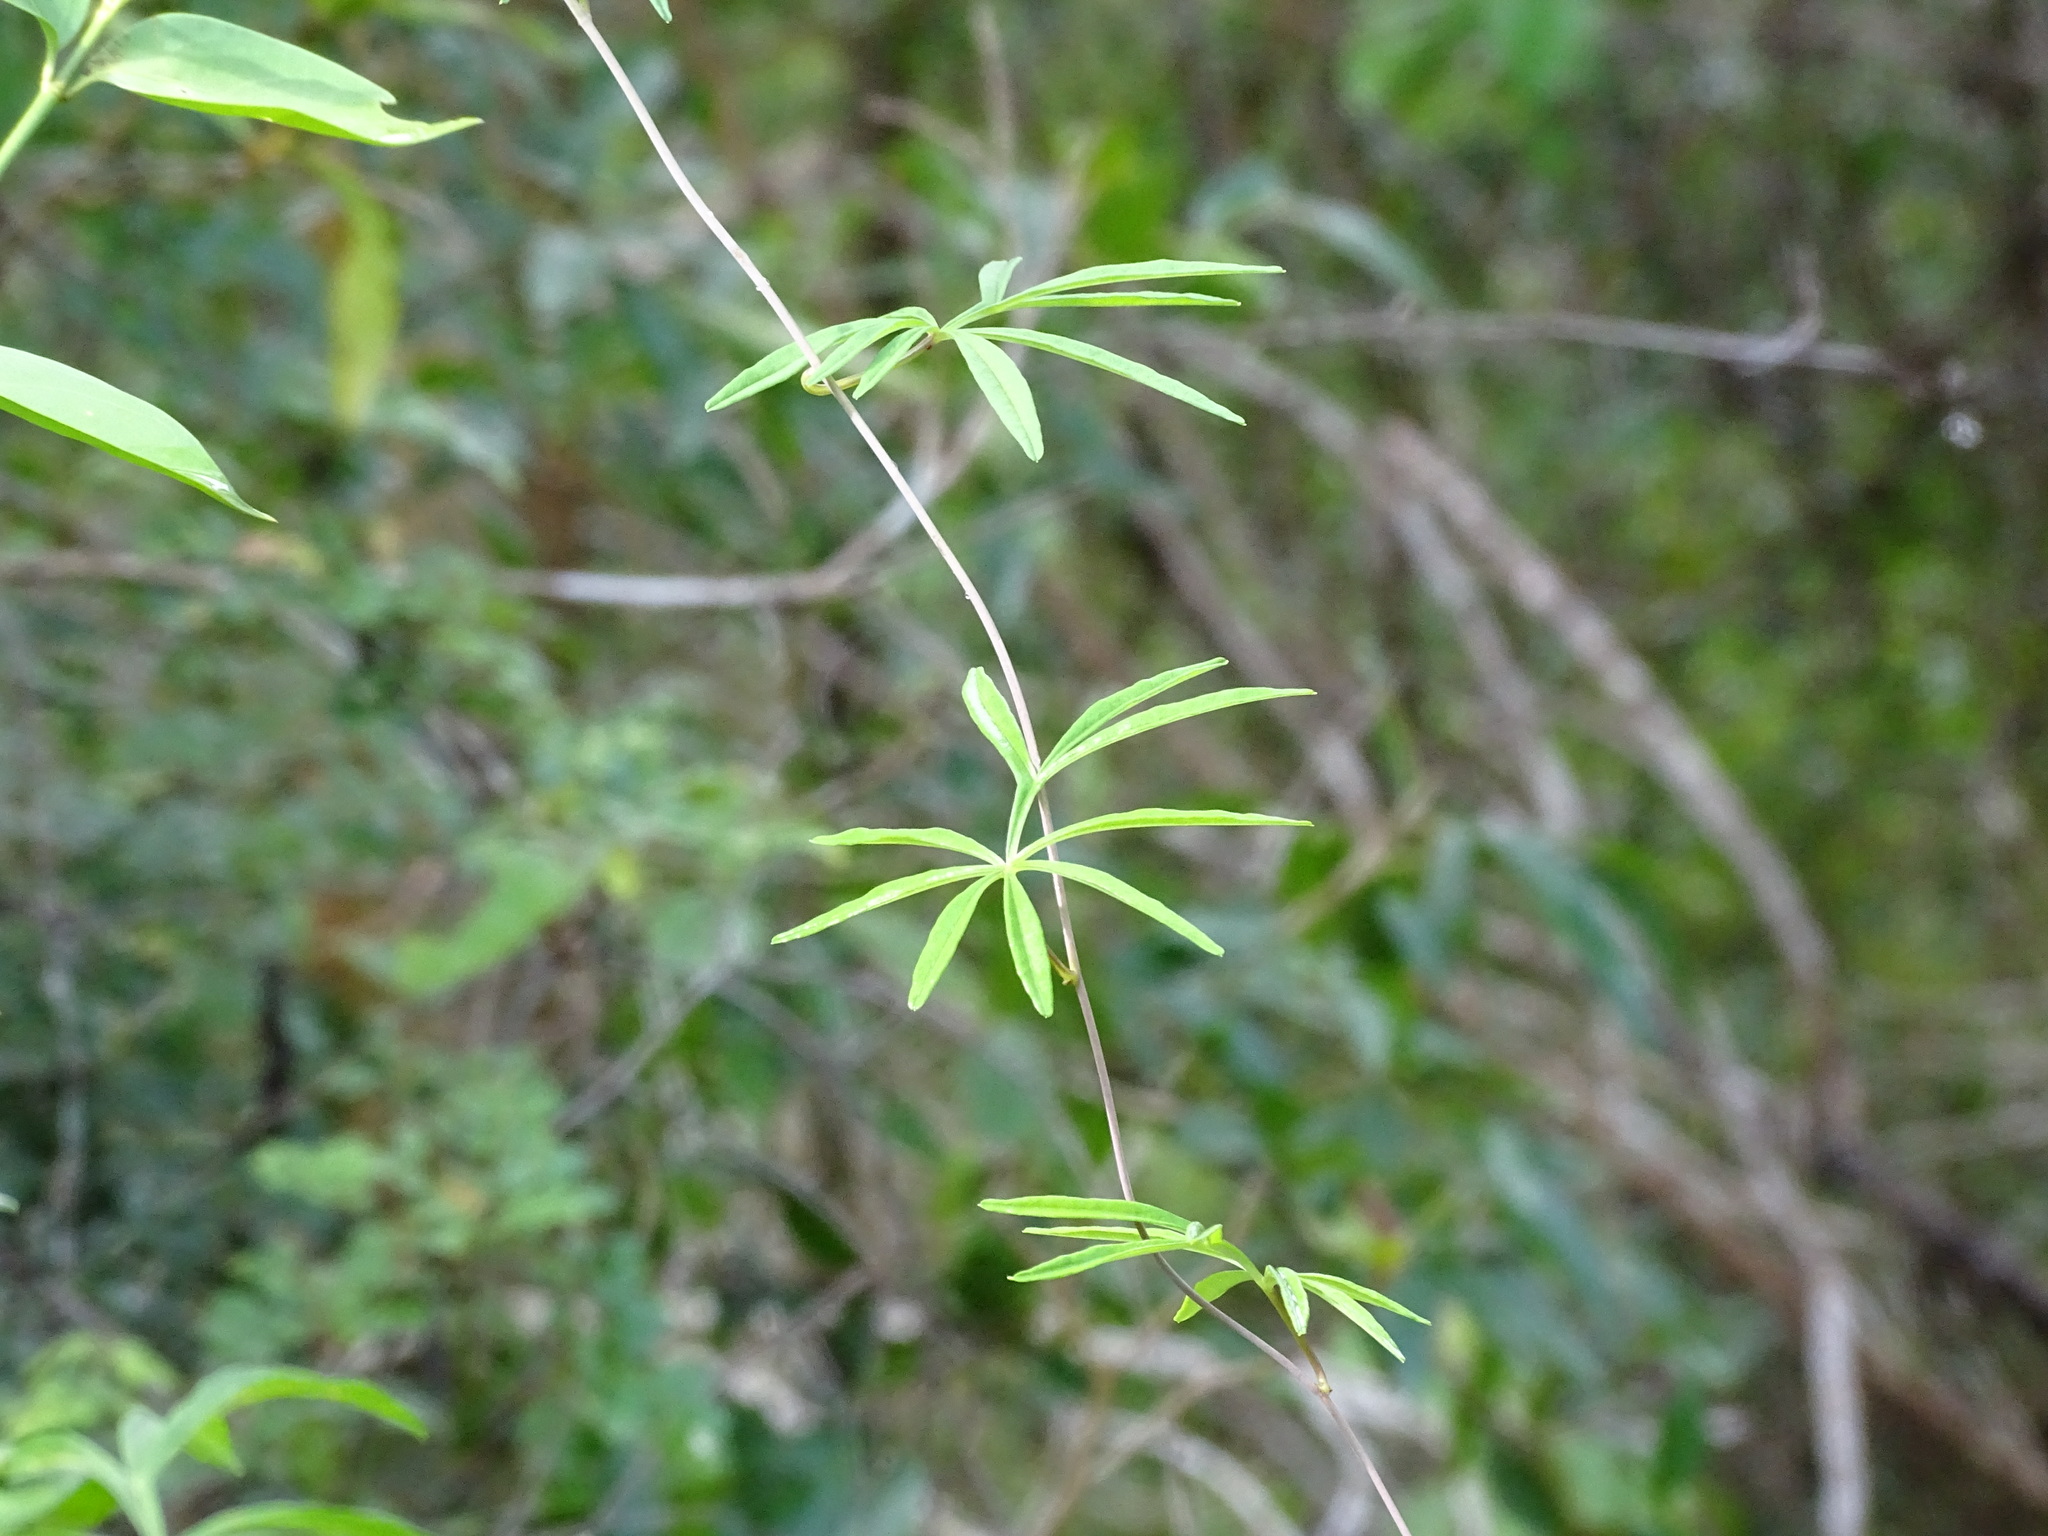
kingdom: Plantae
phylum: Tracheophyta
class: Magnoliopsida
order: Solanales
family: Convolvulaceae
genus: Ipomoea
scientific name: Ipomoea heterodoxa
